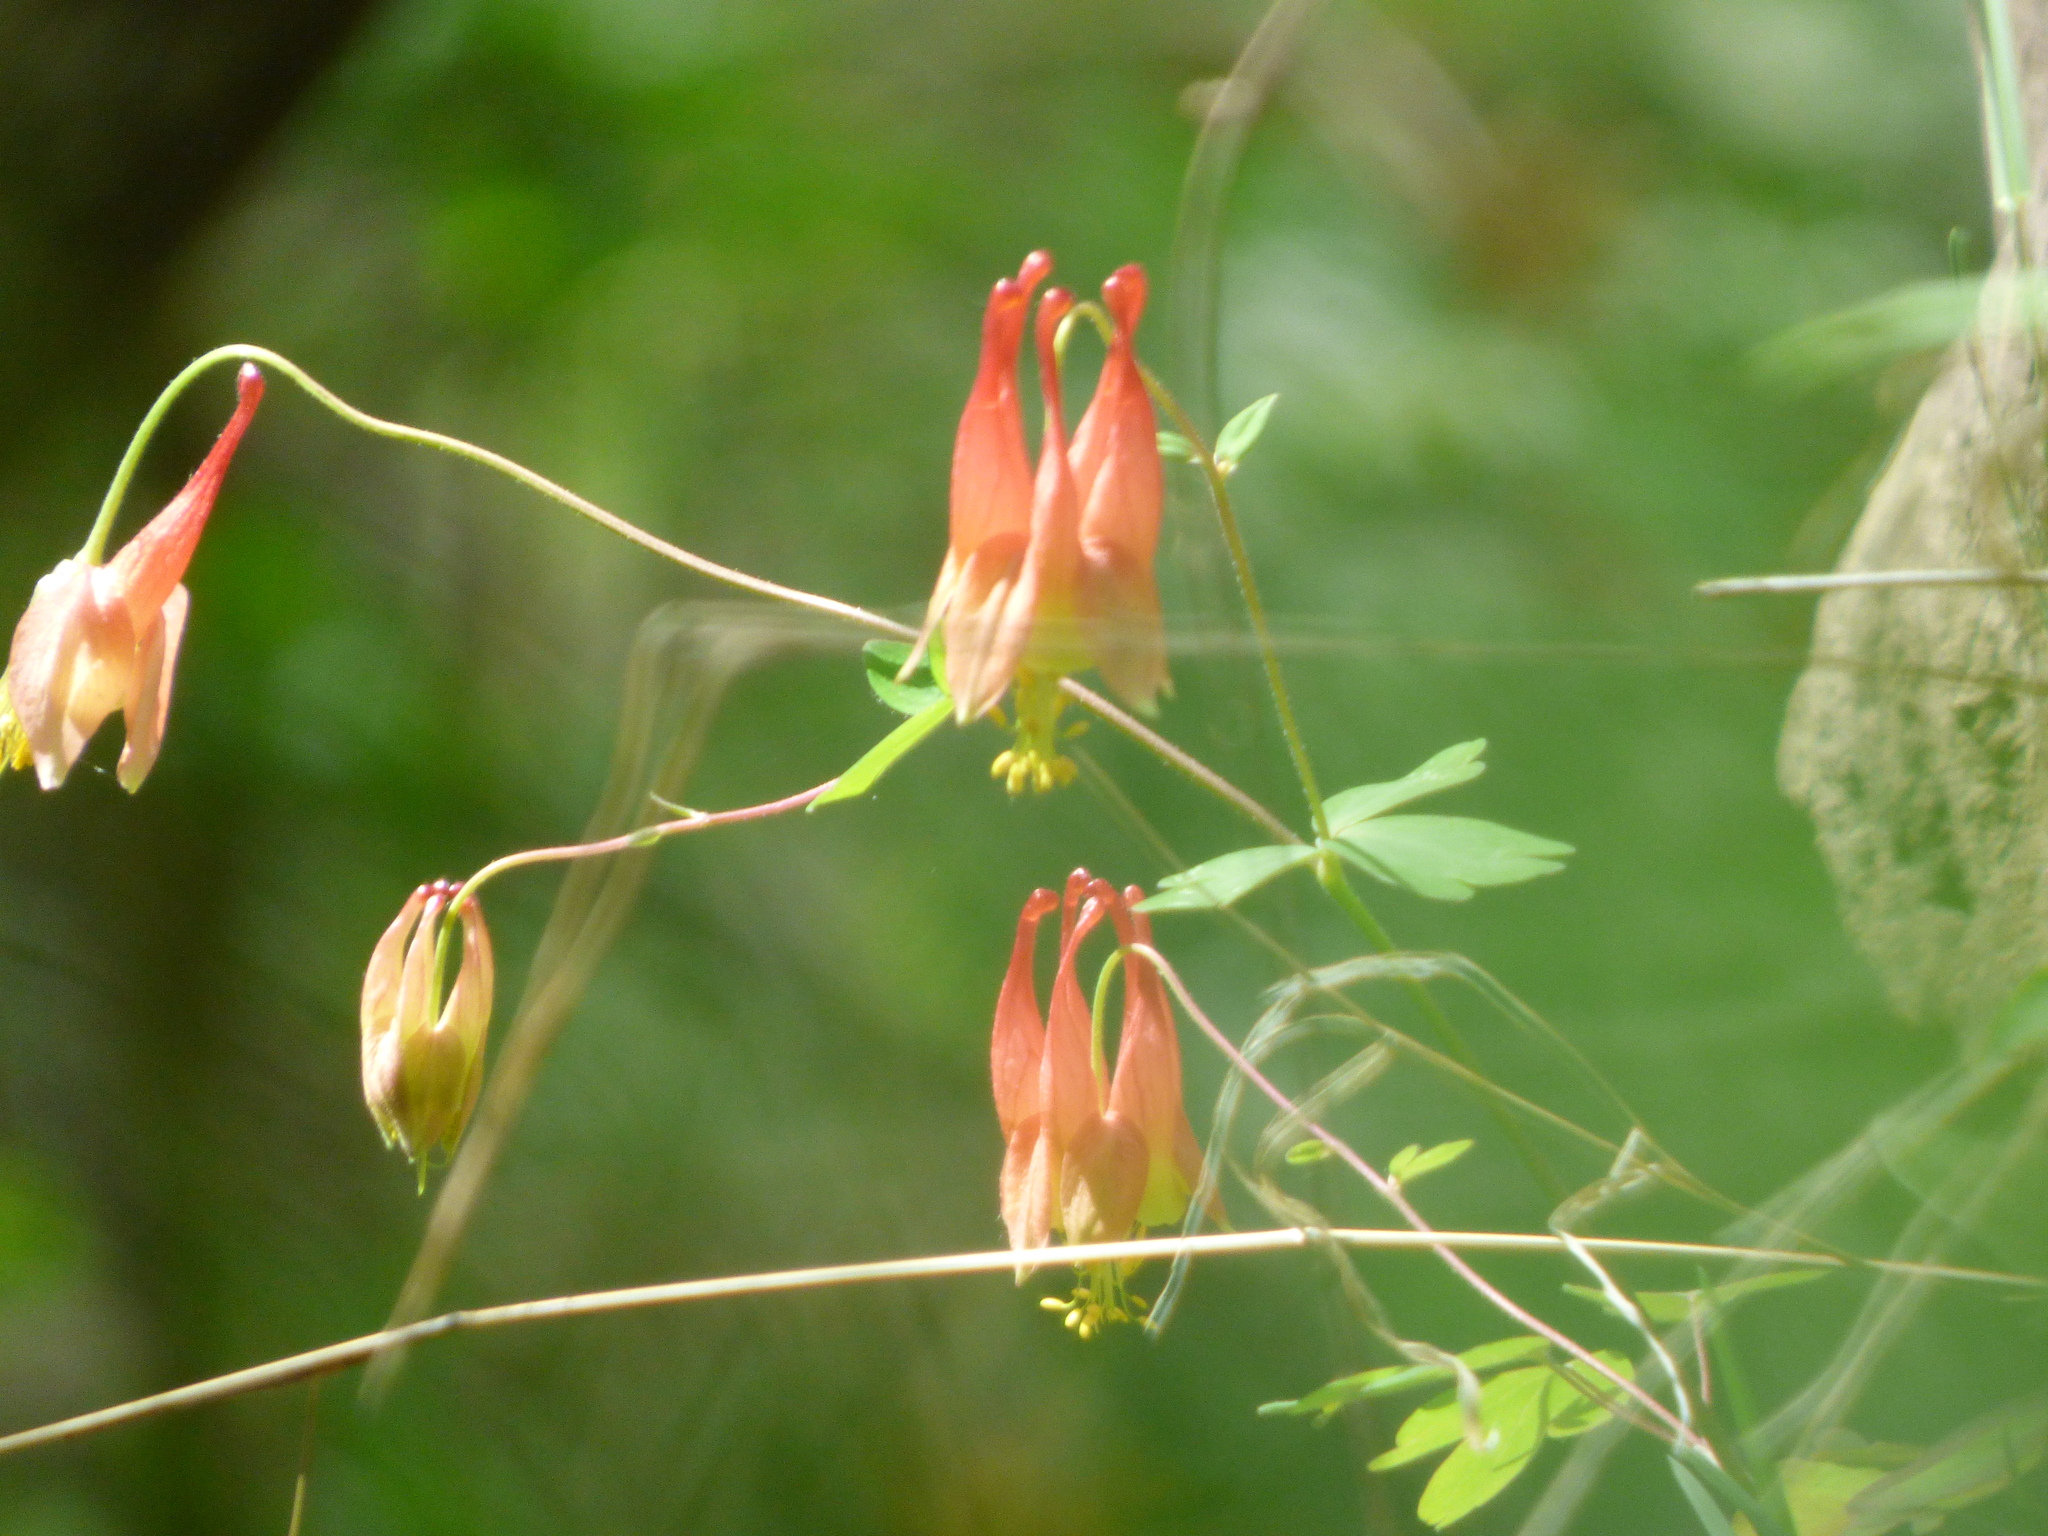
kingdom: Plantae
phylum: Tracheophyta
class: Magnoliopsida
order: Ranunculales
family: Ranunculaceae
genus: Aquilegia
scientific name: Aquilegia canadensis
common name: American columbine
